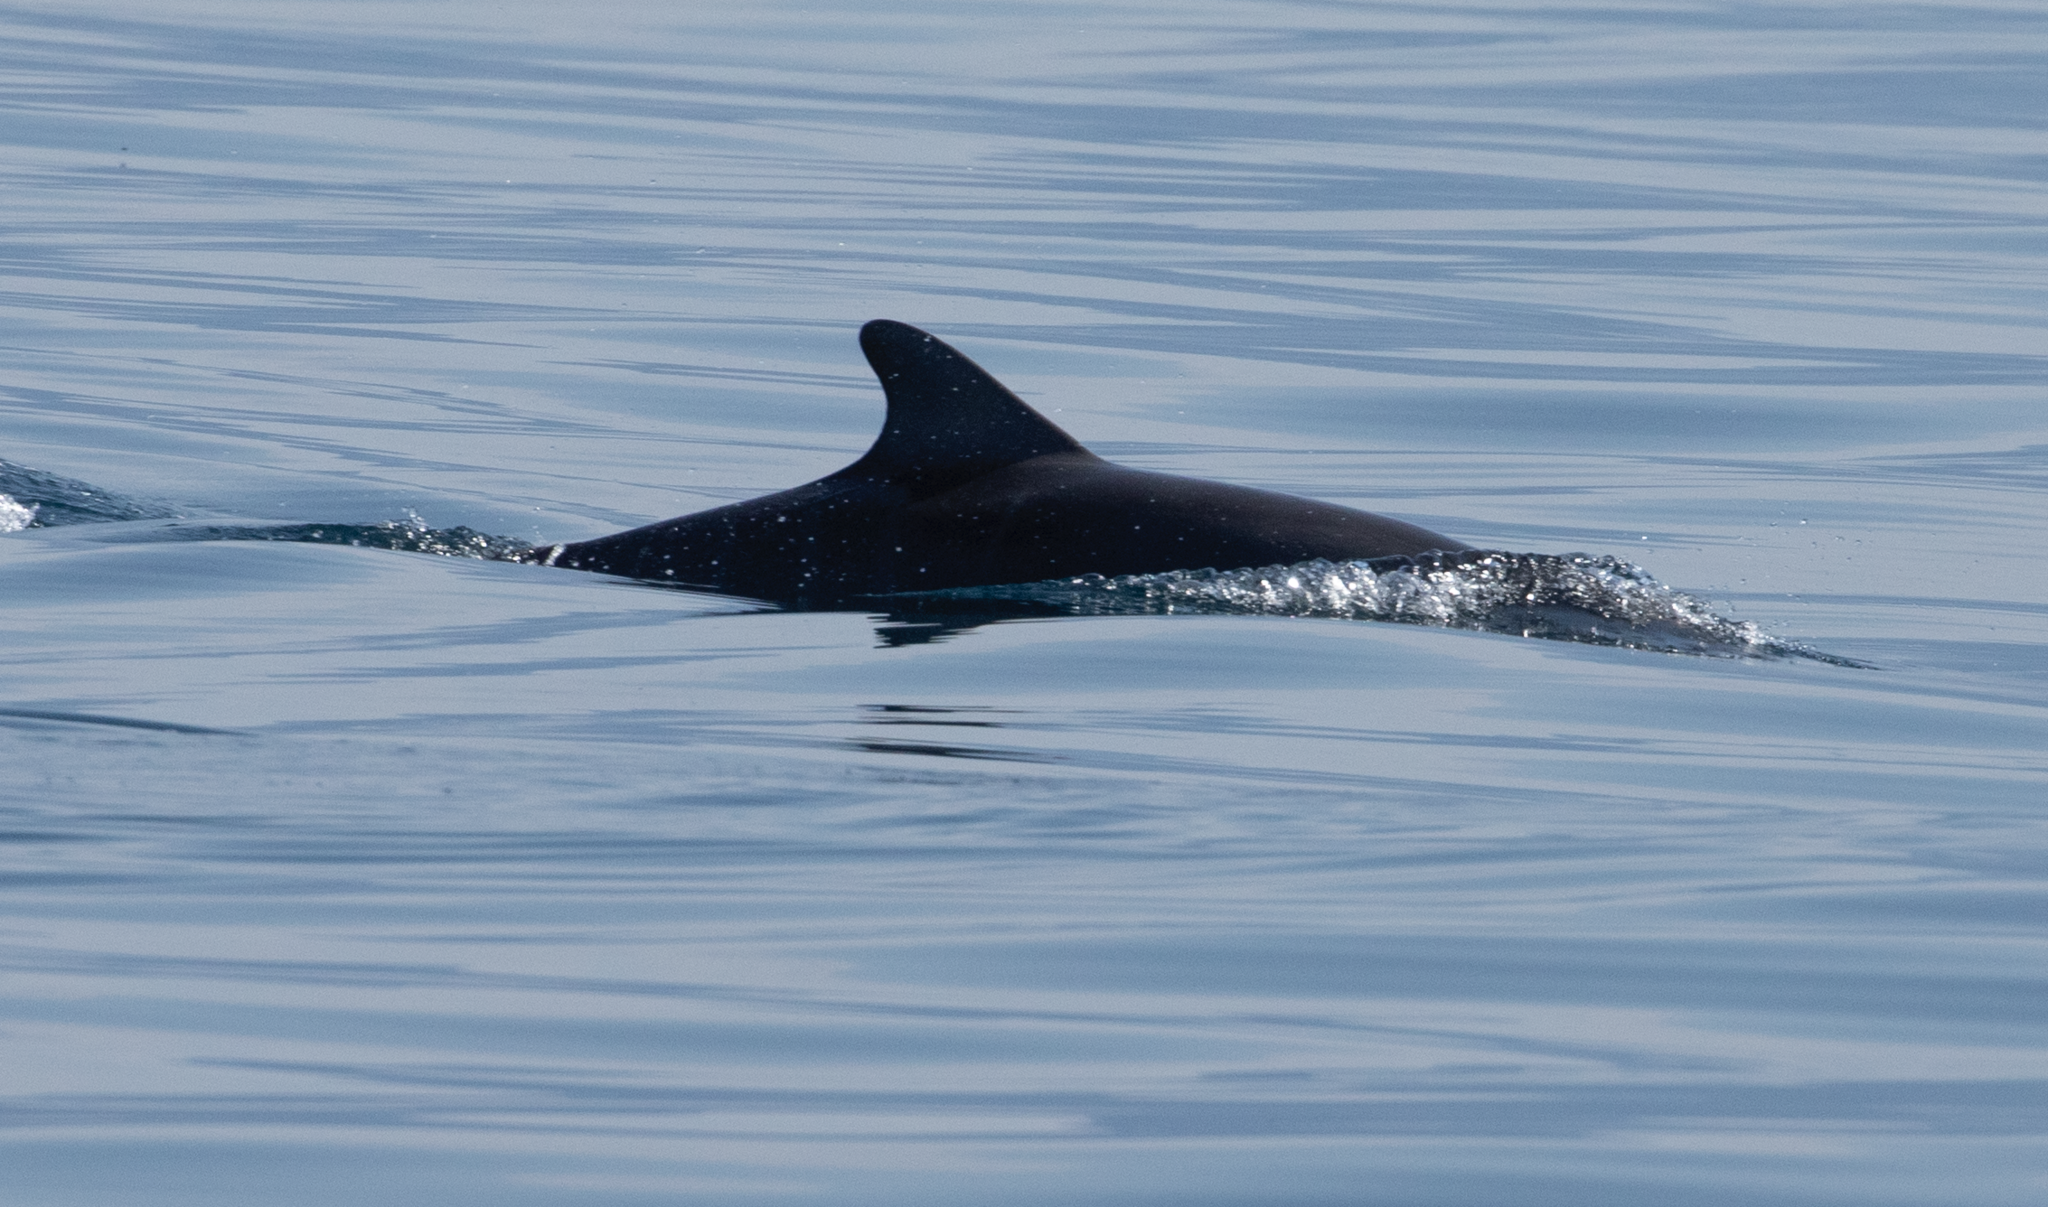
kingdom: Animalia
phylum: Chordata
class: Mammalia
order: Cetacea
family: Delphinidae
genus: Tursiops
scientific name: Tursiops truncatus
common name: Bottlenose dolphin
